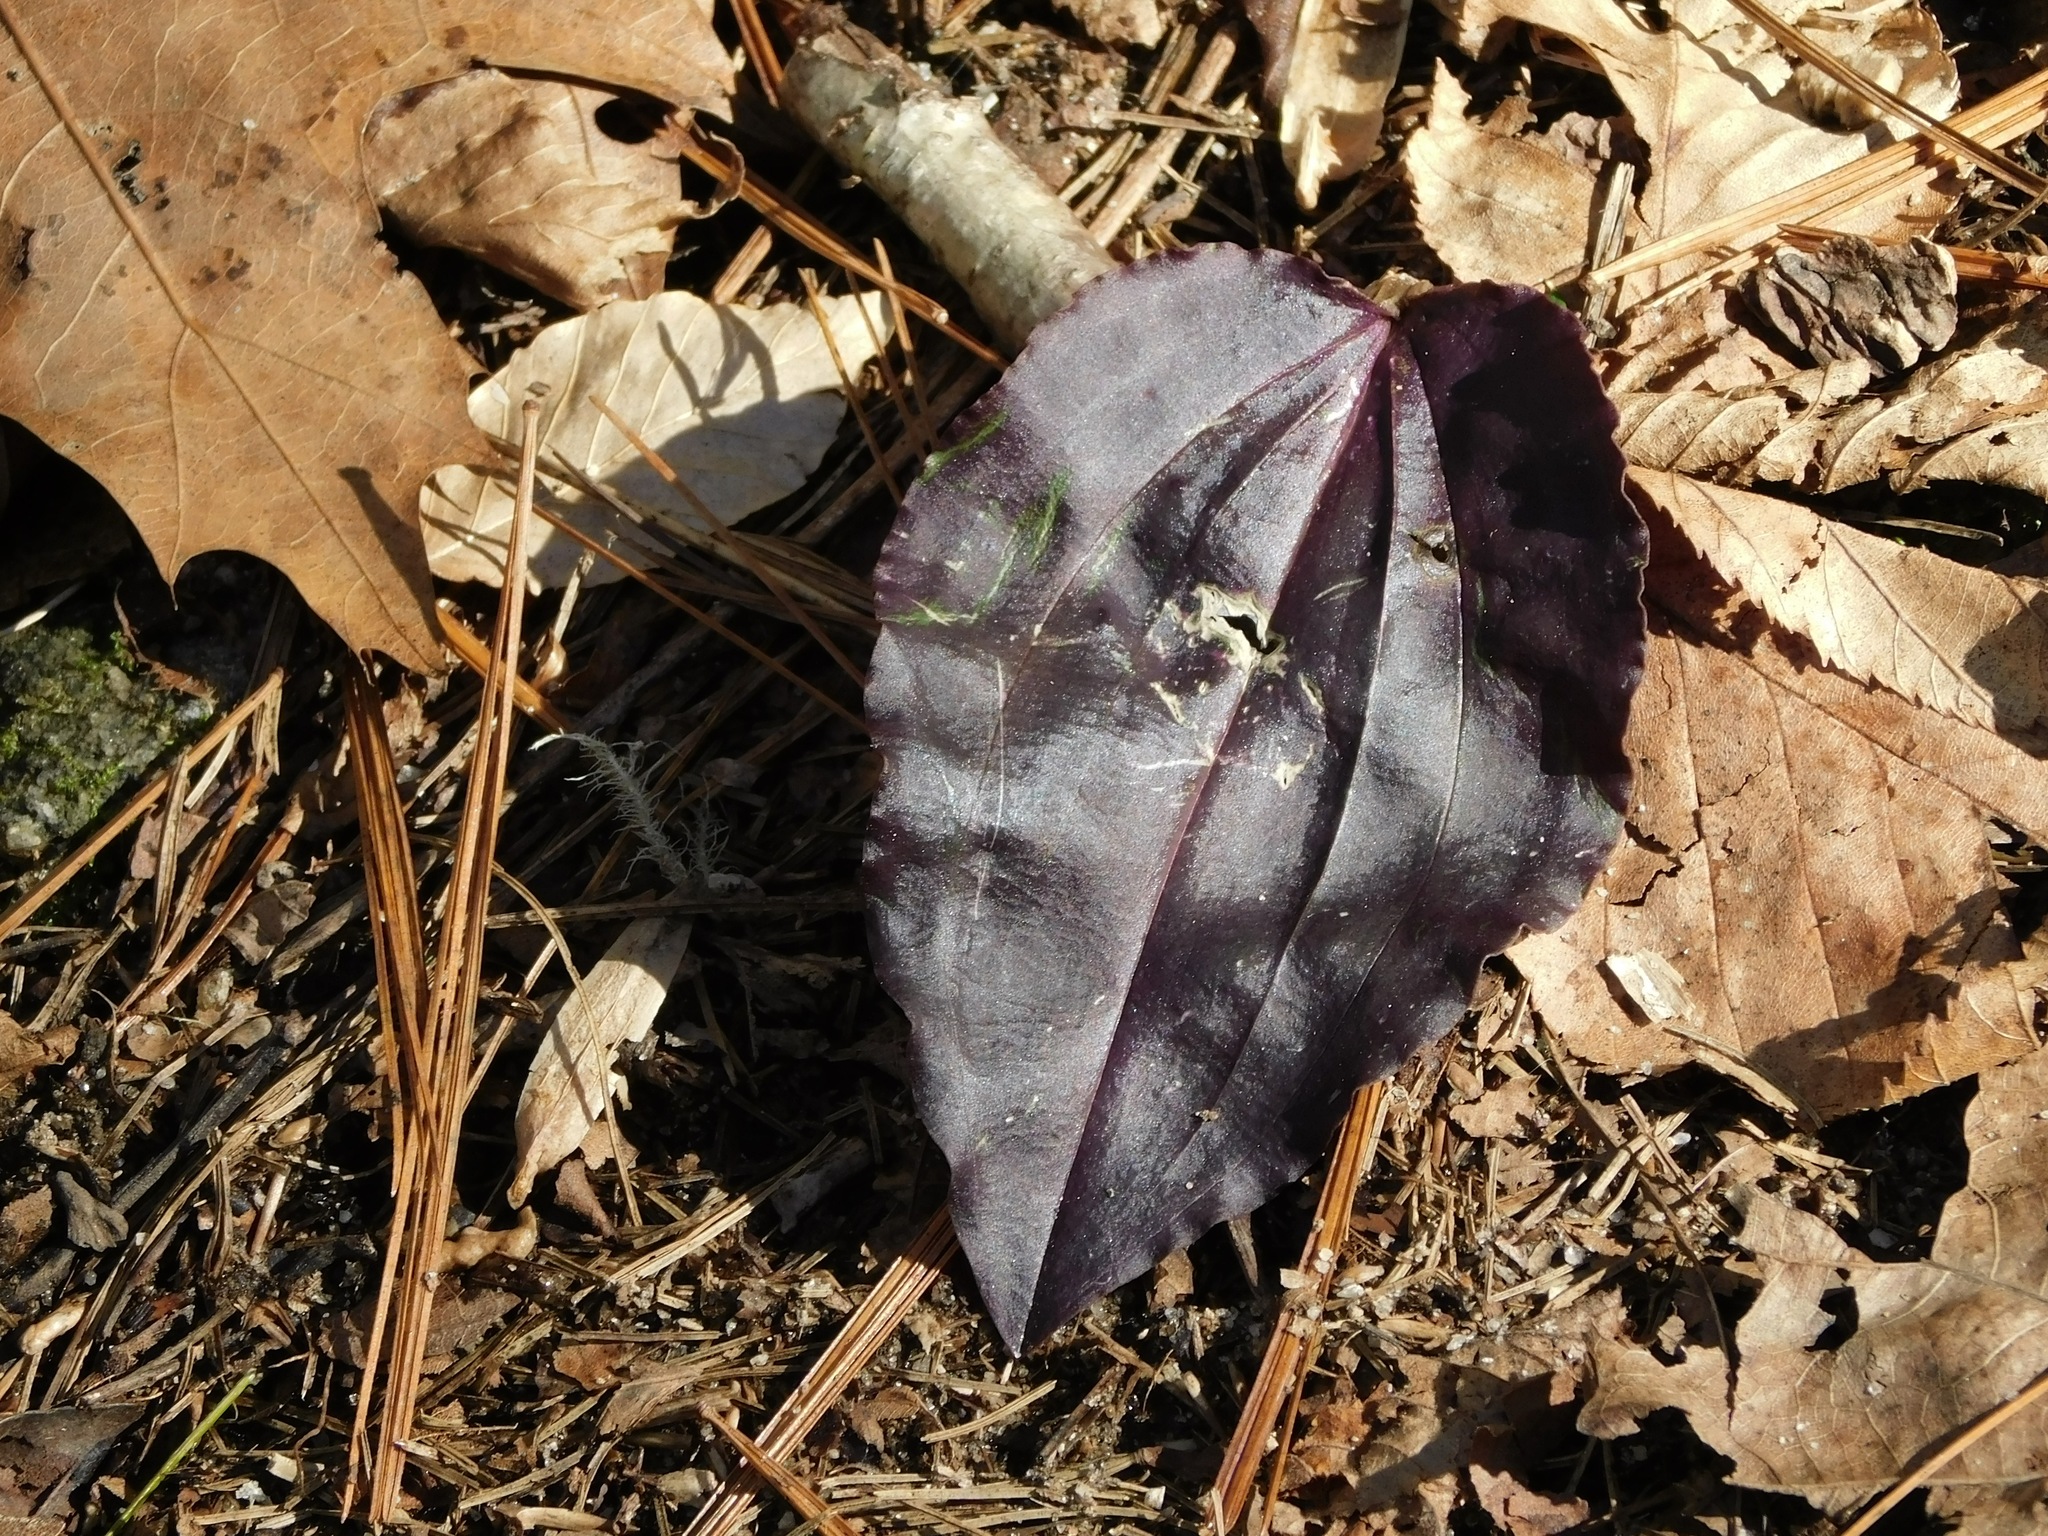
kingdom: Plantae
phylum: Tracheophyta
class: Liliopsida
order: Asparagales
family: Orchidaceae
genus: Tipularia
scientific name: Tipularia discolor
